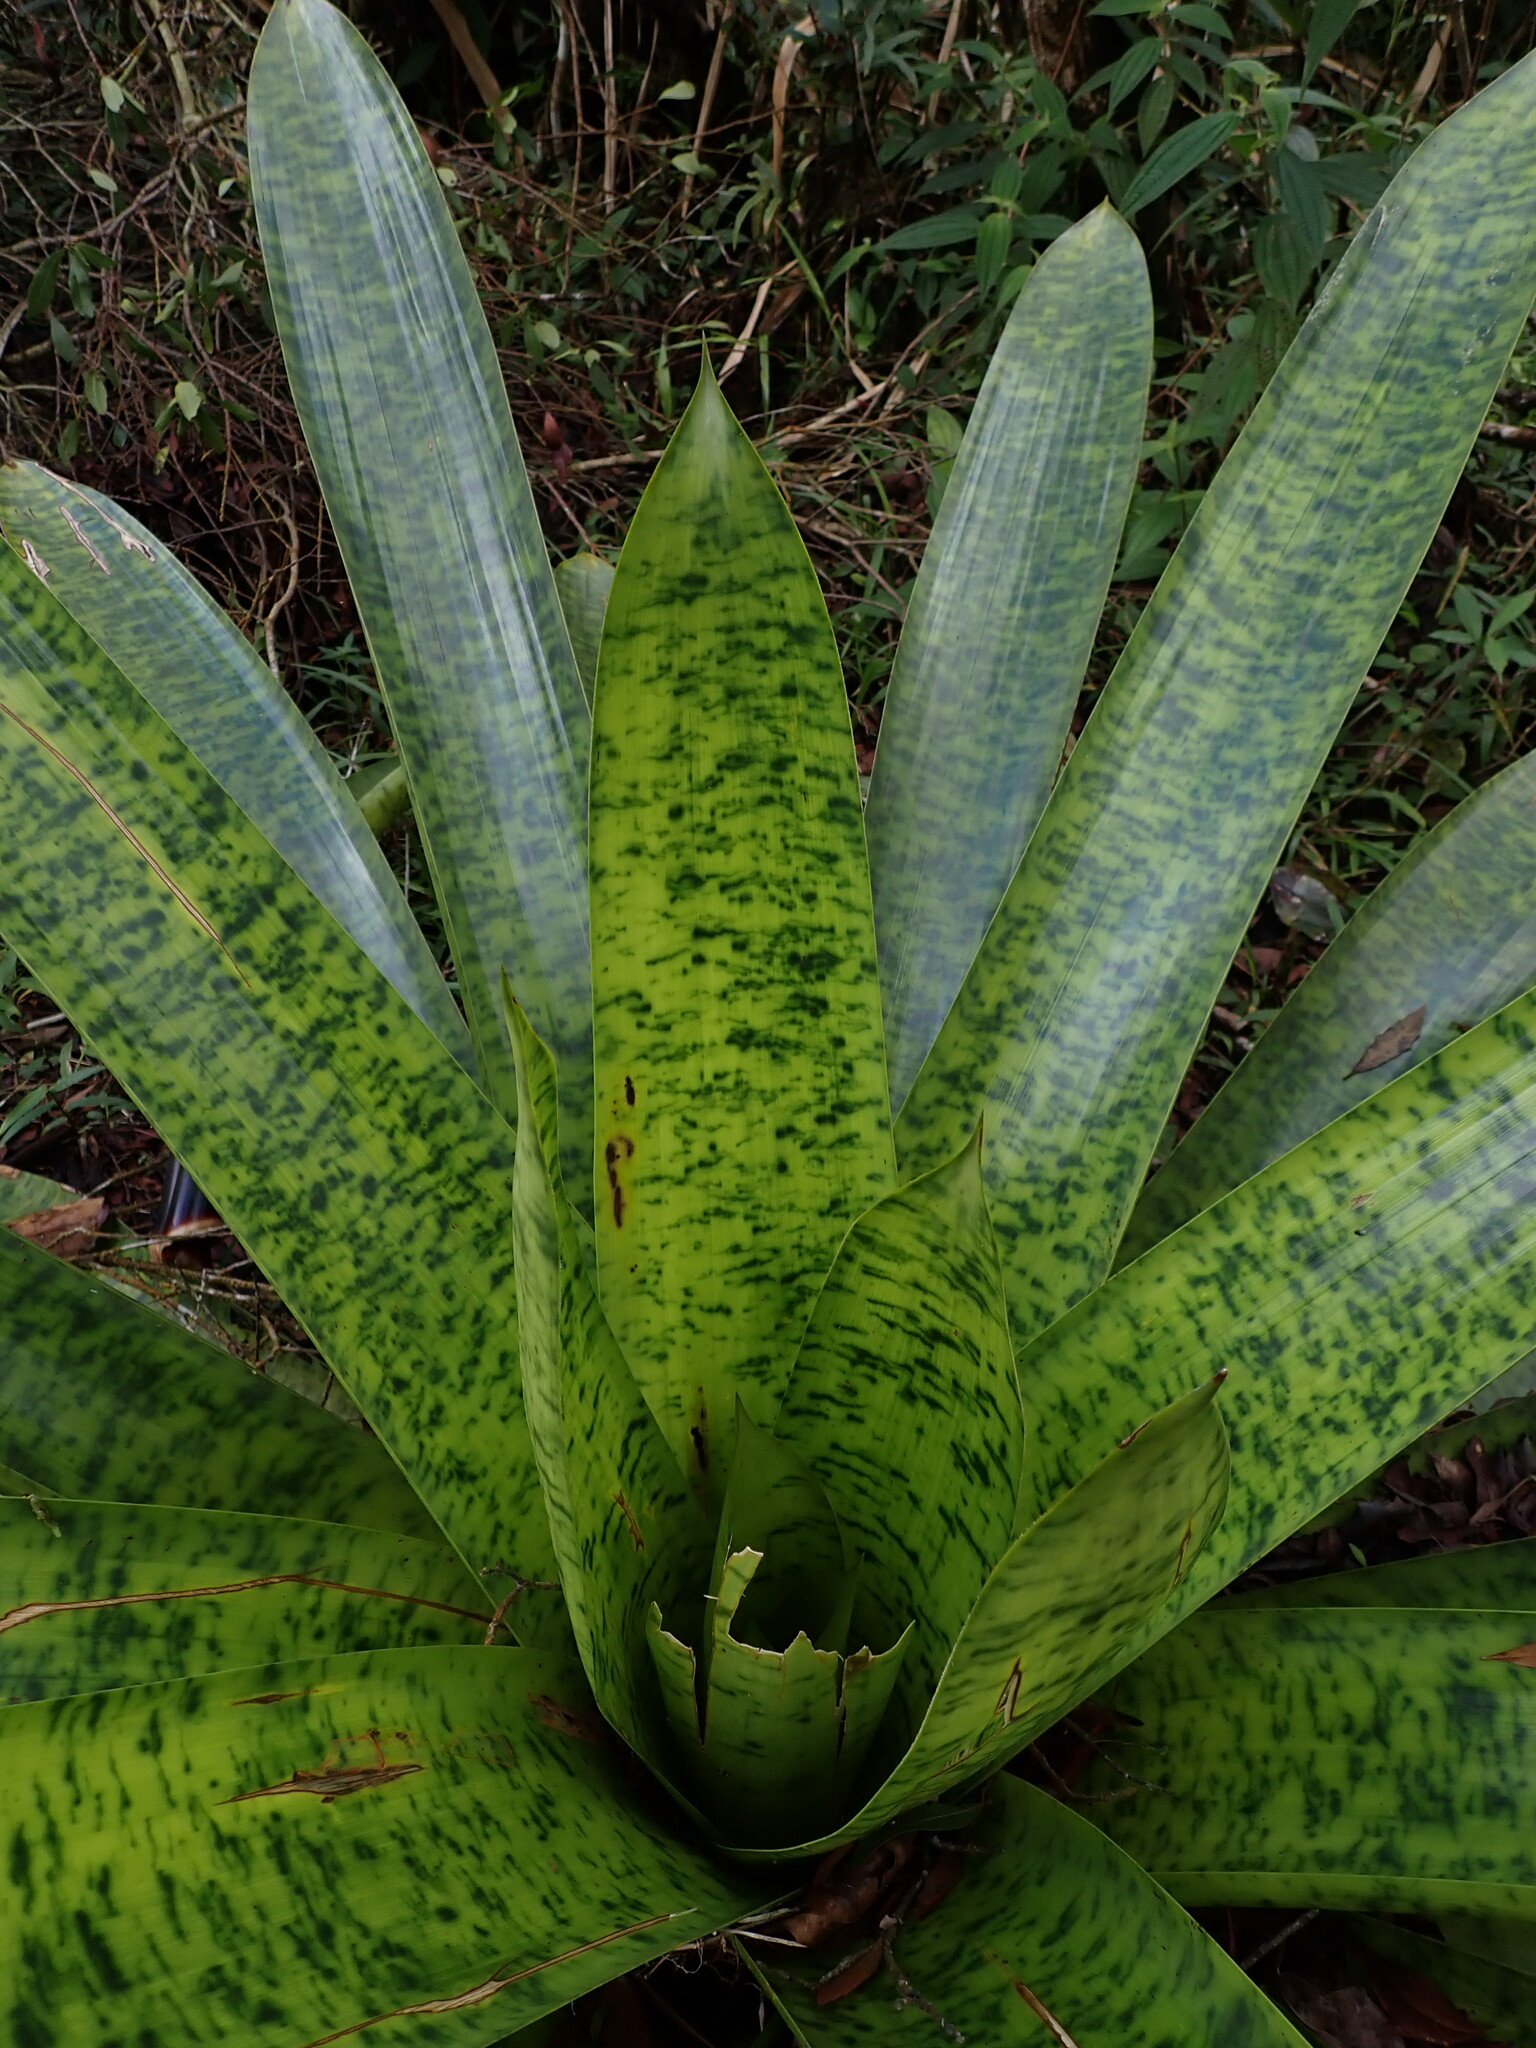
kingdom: Plantae
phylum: Tracheophyta
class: Liliopsida
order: Poales
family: Bromeliaceae
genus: Werauhia
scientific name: Werauhia kupperiana
